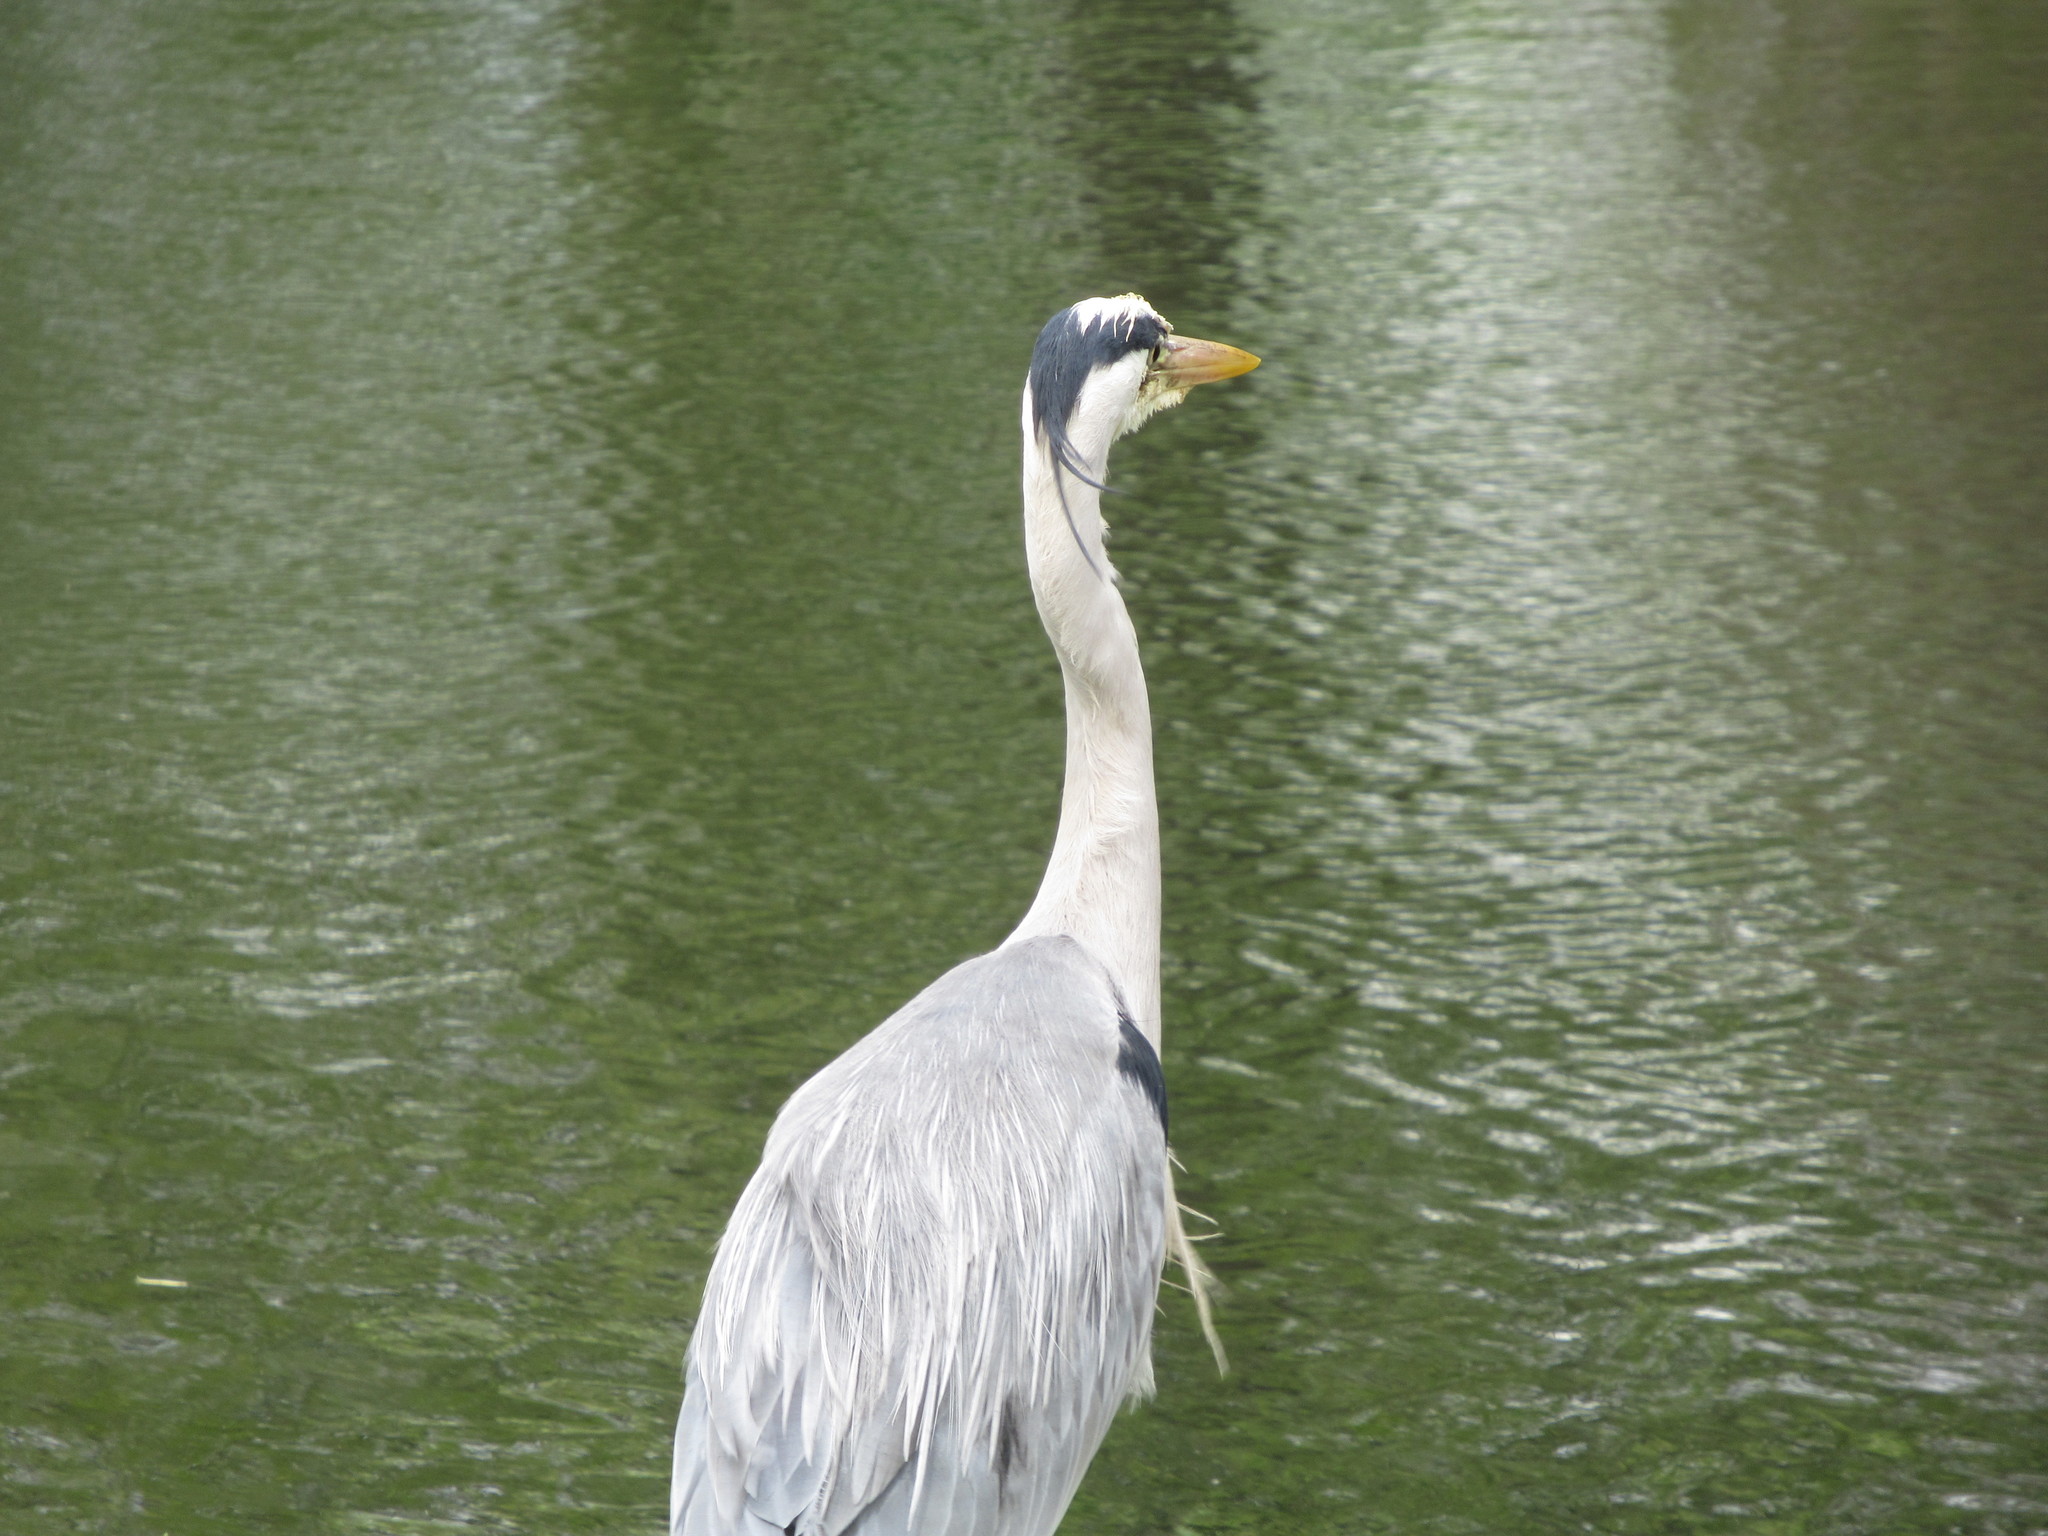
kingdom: Animalia
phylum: Chordata
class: Aves
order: Pelecaniformes
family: Ardeidae
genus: Ardea
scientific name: Ardea cinerea
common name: Grey heron
